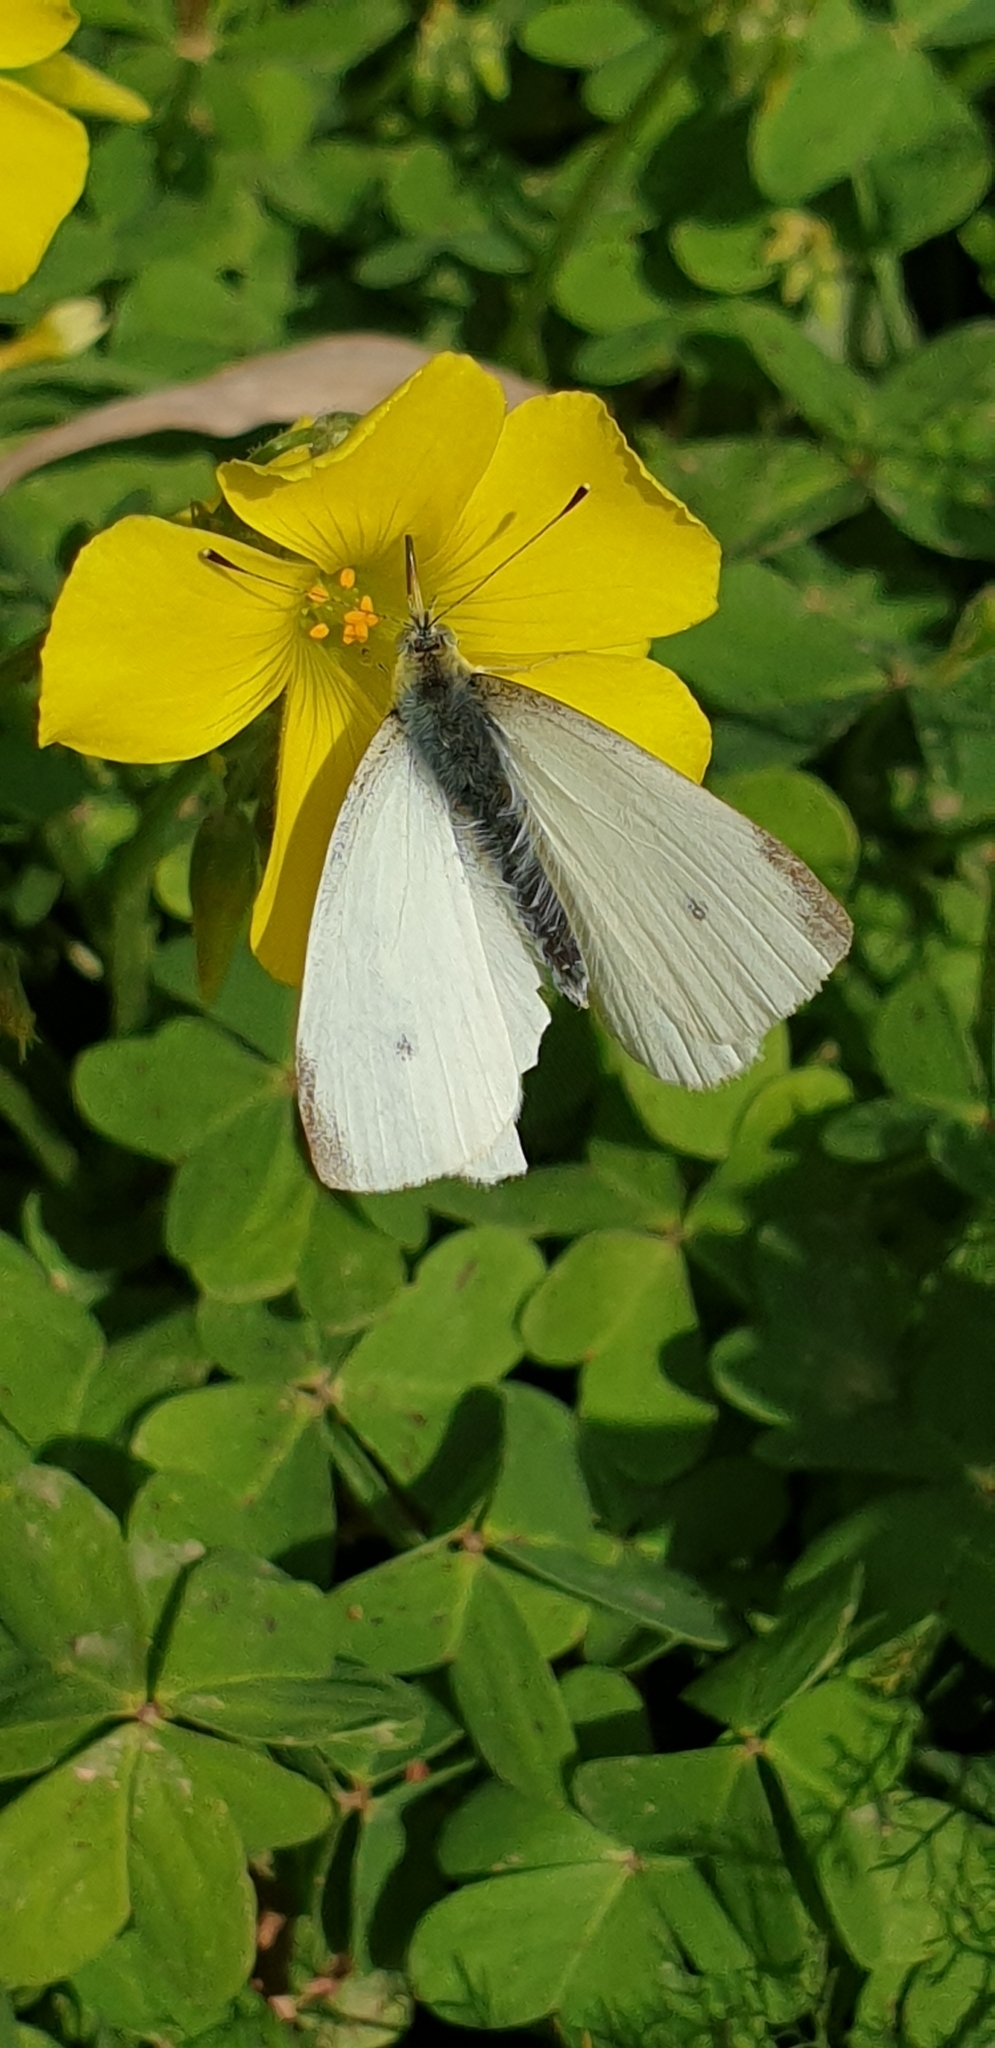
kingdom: Animalia
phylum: Arthropoda
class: Insecta
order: Lepidoptera
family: Pieridae
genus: Pieris
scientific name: Pieris rapae
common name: Small white
